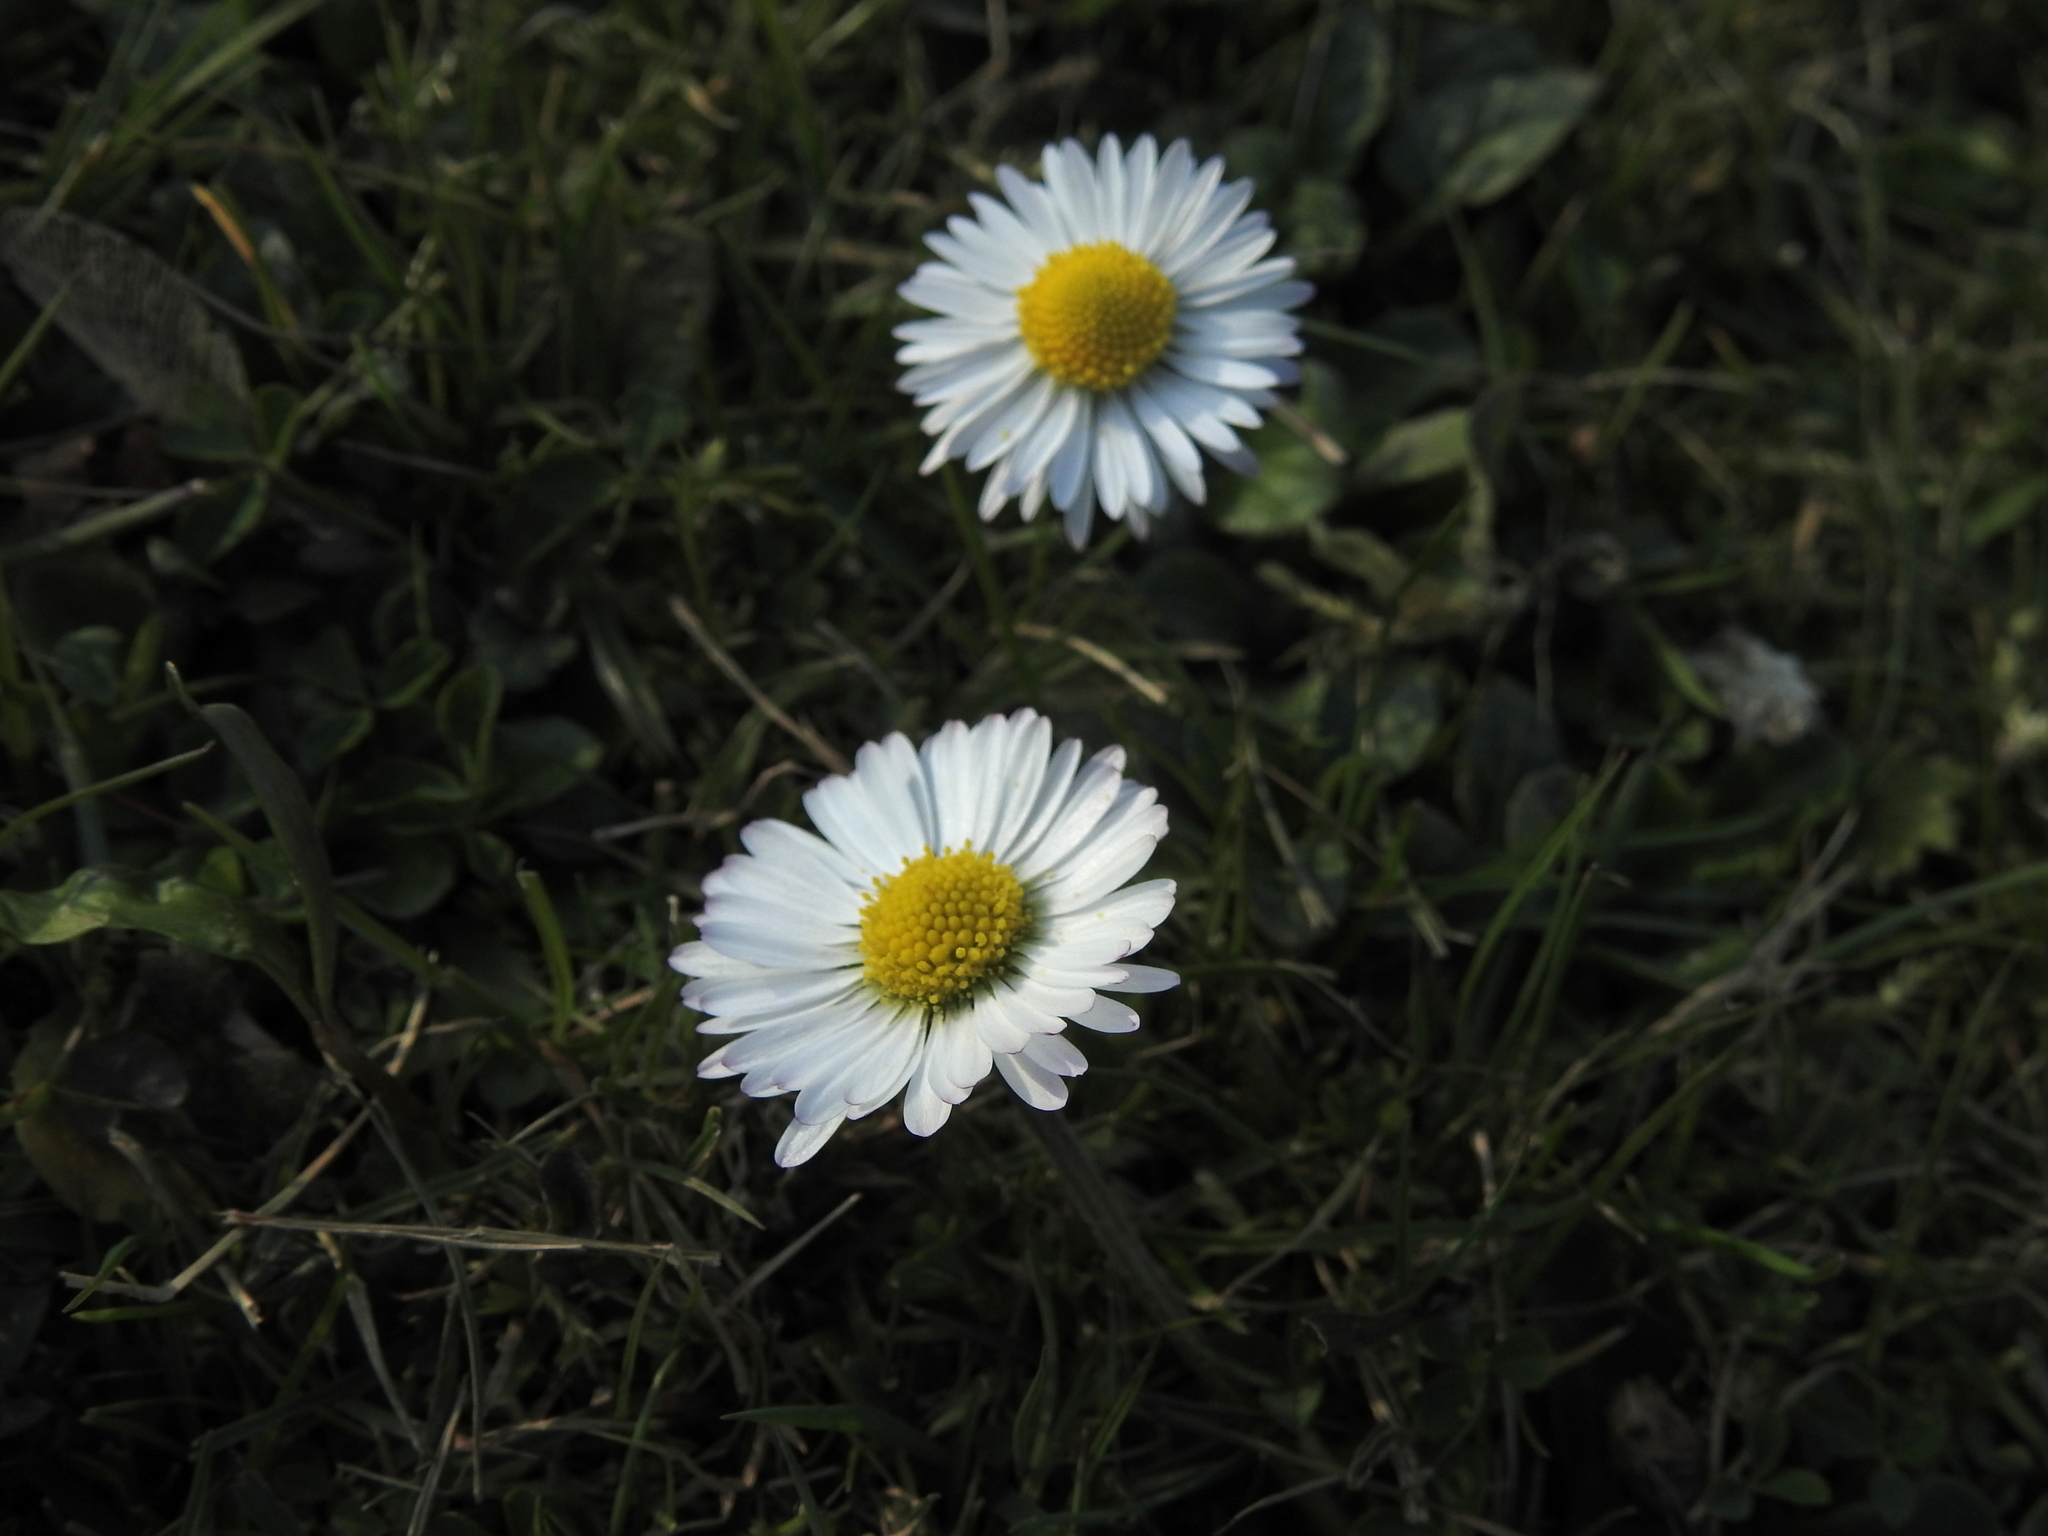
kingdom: Plantae
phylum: Tracheophyta
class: Magnoliopsida
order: Asterales
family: Asteraceae
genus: Bellis
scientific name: Bellis perennis
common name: Lawndaisy
